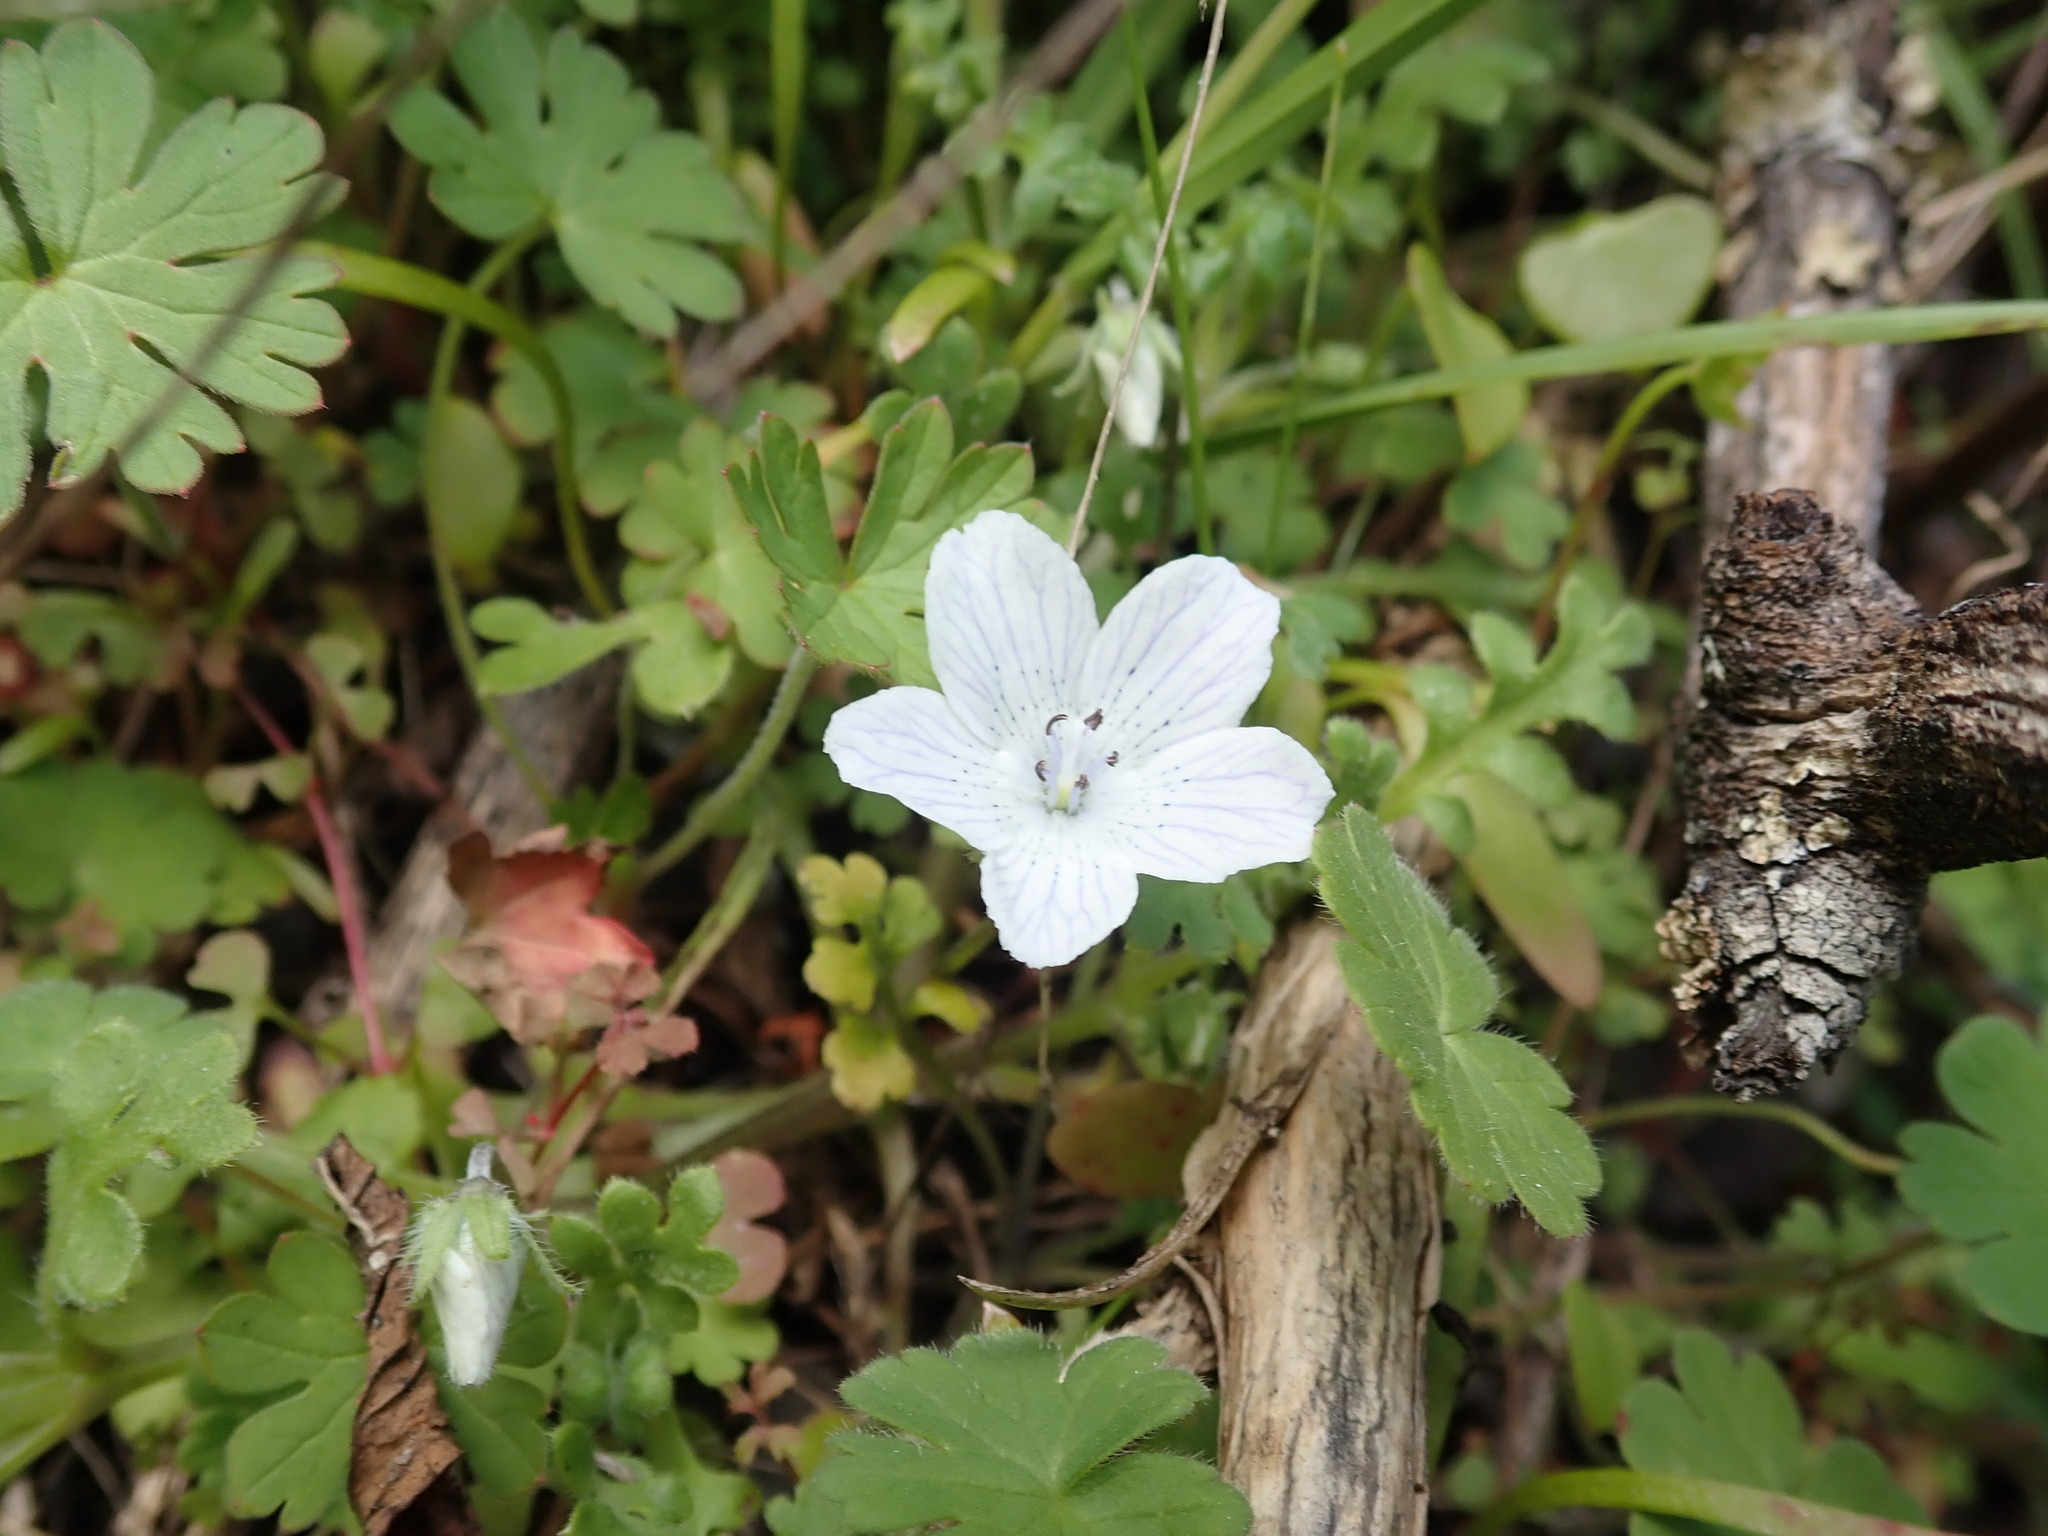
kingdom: Plantae
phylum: Tracheophyta
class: Magnoliopsida
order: Boraginales
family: Hydrophyllaceae
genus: Nemophila
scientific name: Nemophila menziesii
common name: Baby's-blue-eyes
